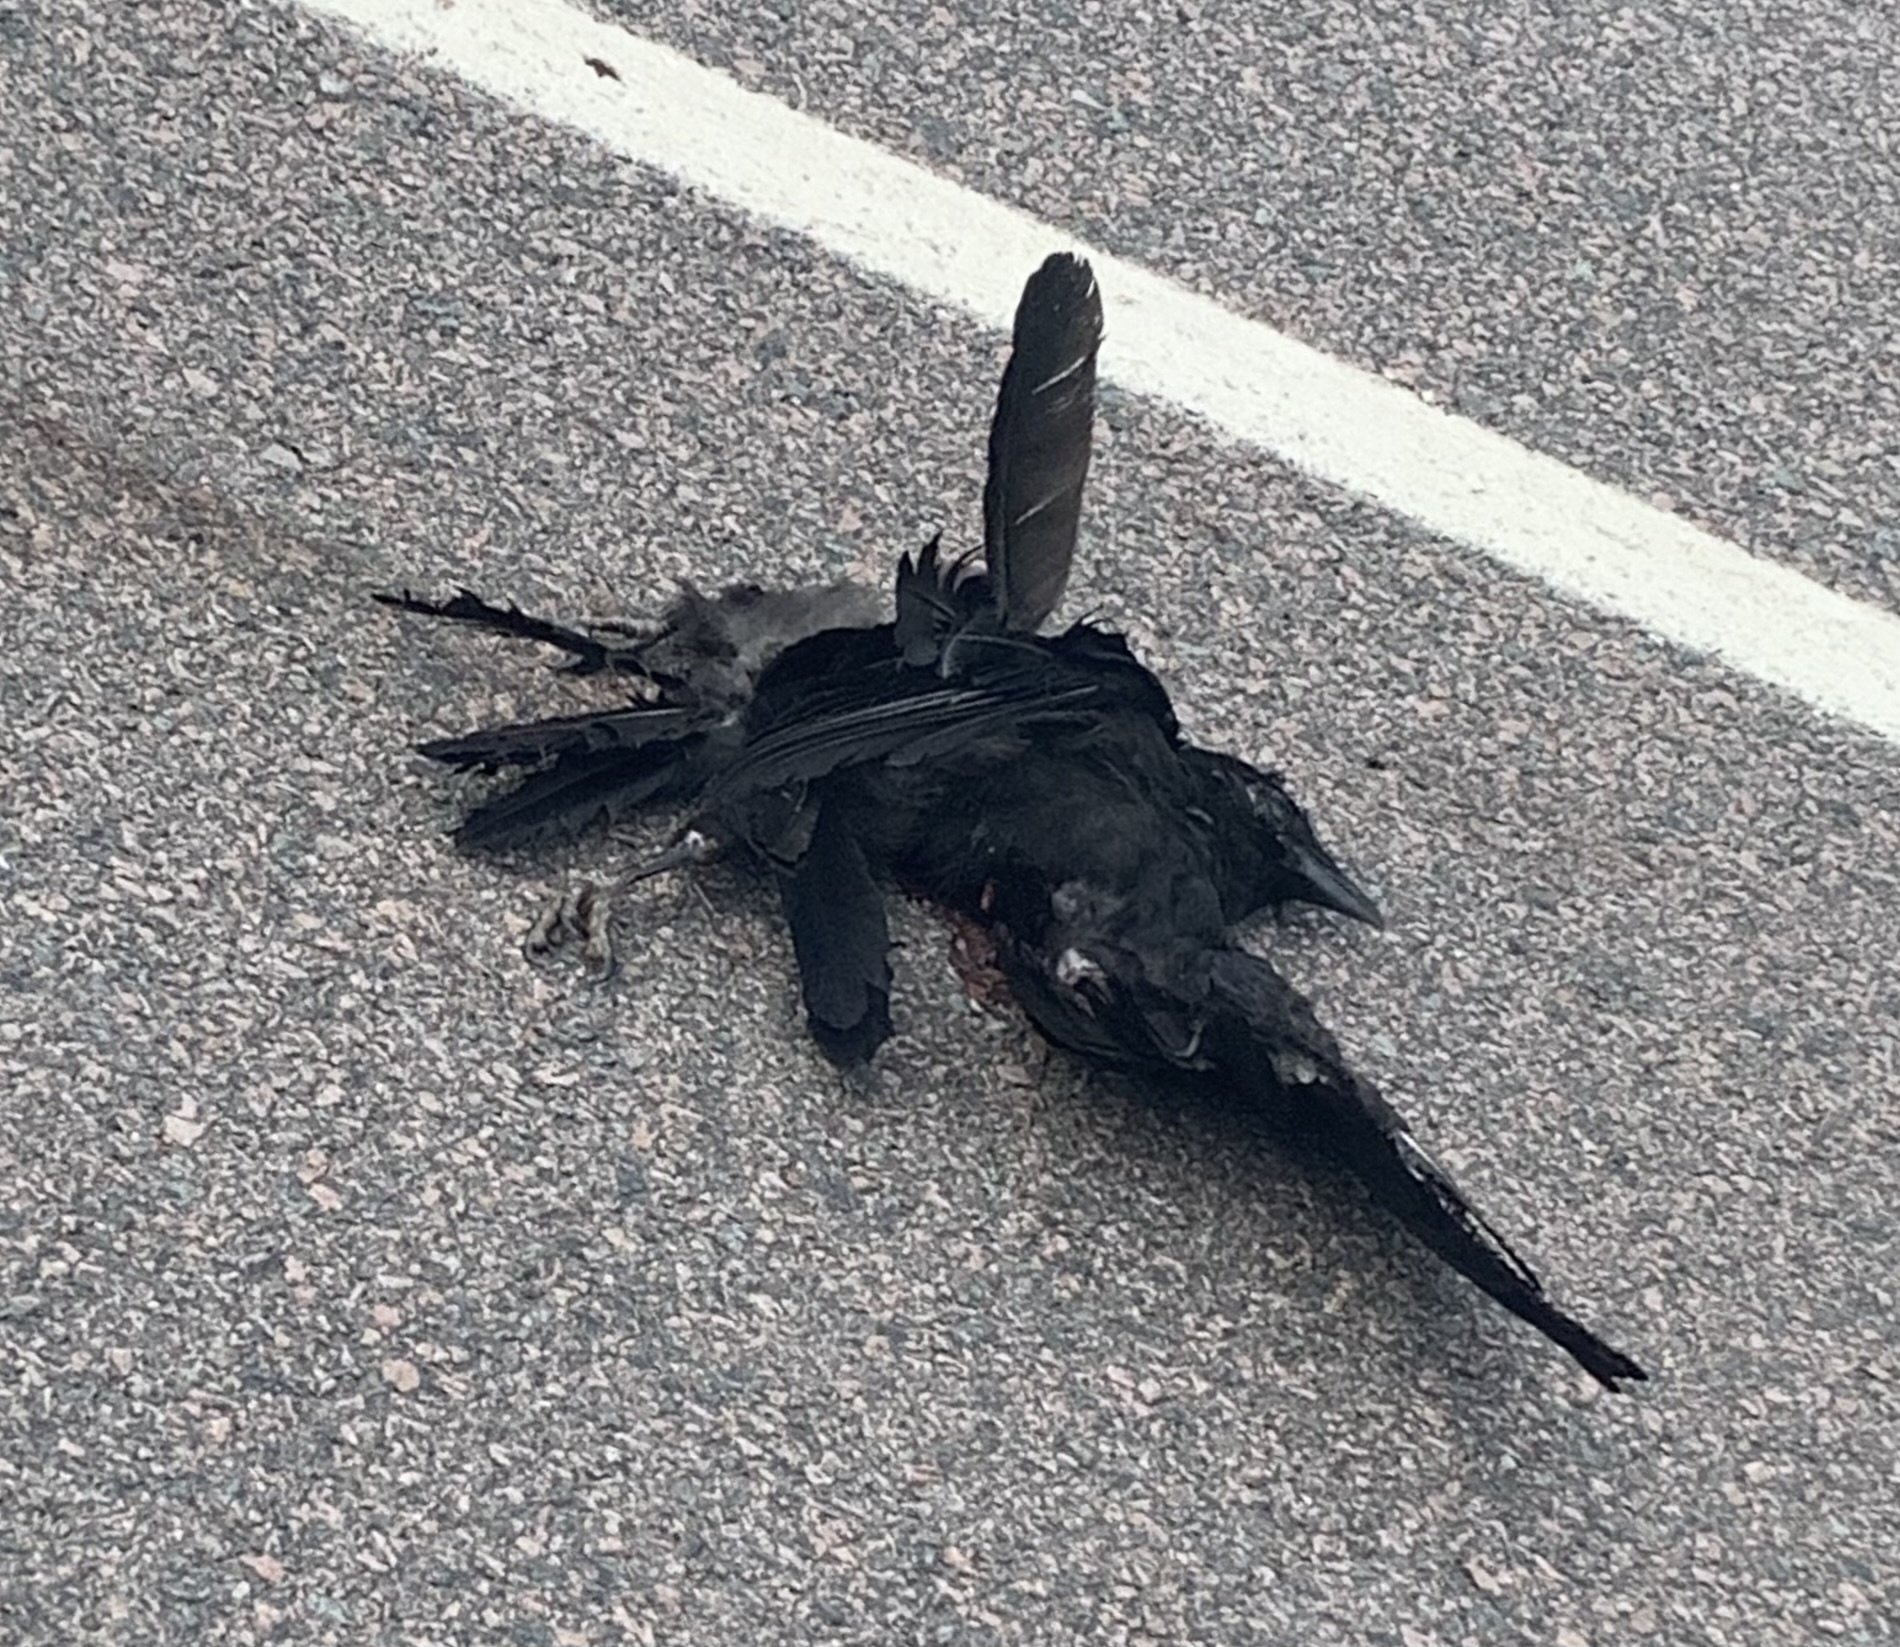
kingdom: Animalia
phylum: Chordata
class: Aves
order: Passeriformes
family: Corvidae
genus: Corvus
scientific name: Corvus brachyrhynchos
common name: American crow
